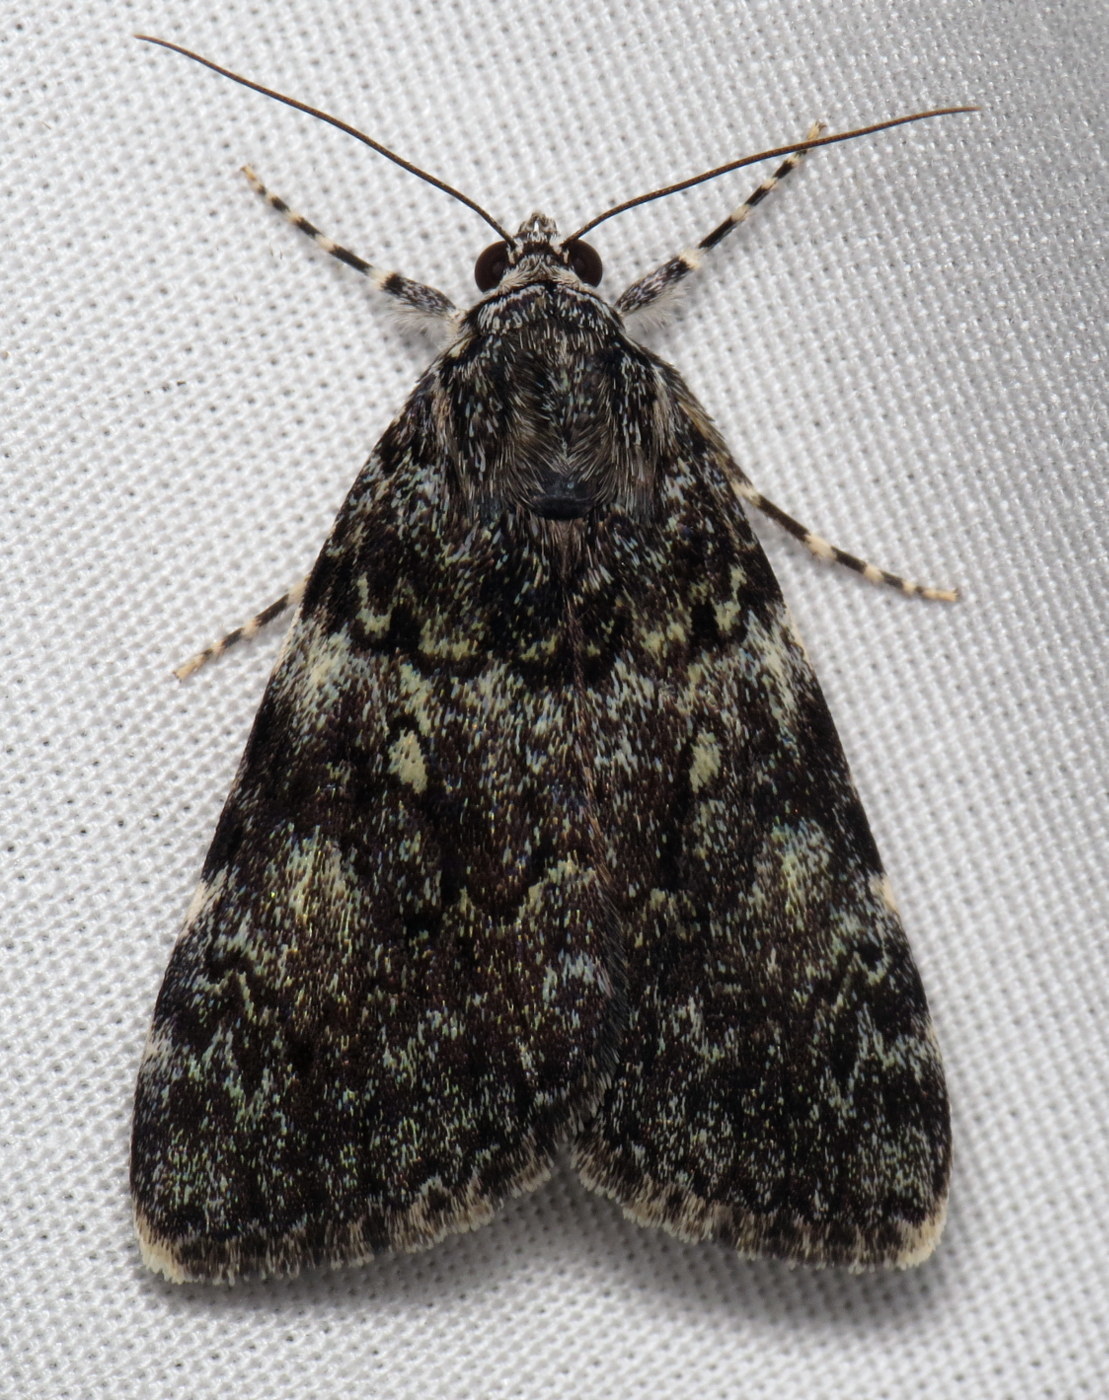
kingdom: Animalia
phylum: Arthropoda
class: Insecta
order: Lepidoptera
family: Erebidae
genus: Catocala
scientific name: Catocala lineella
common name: Little lined underwing
